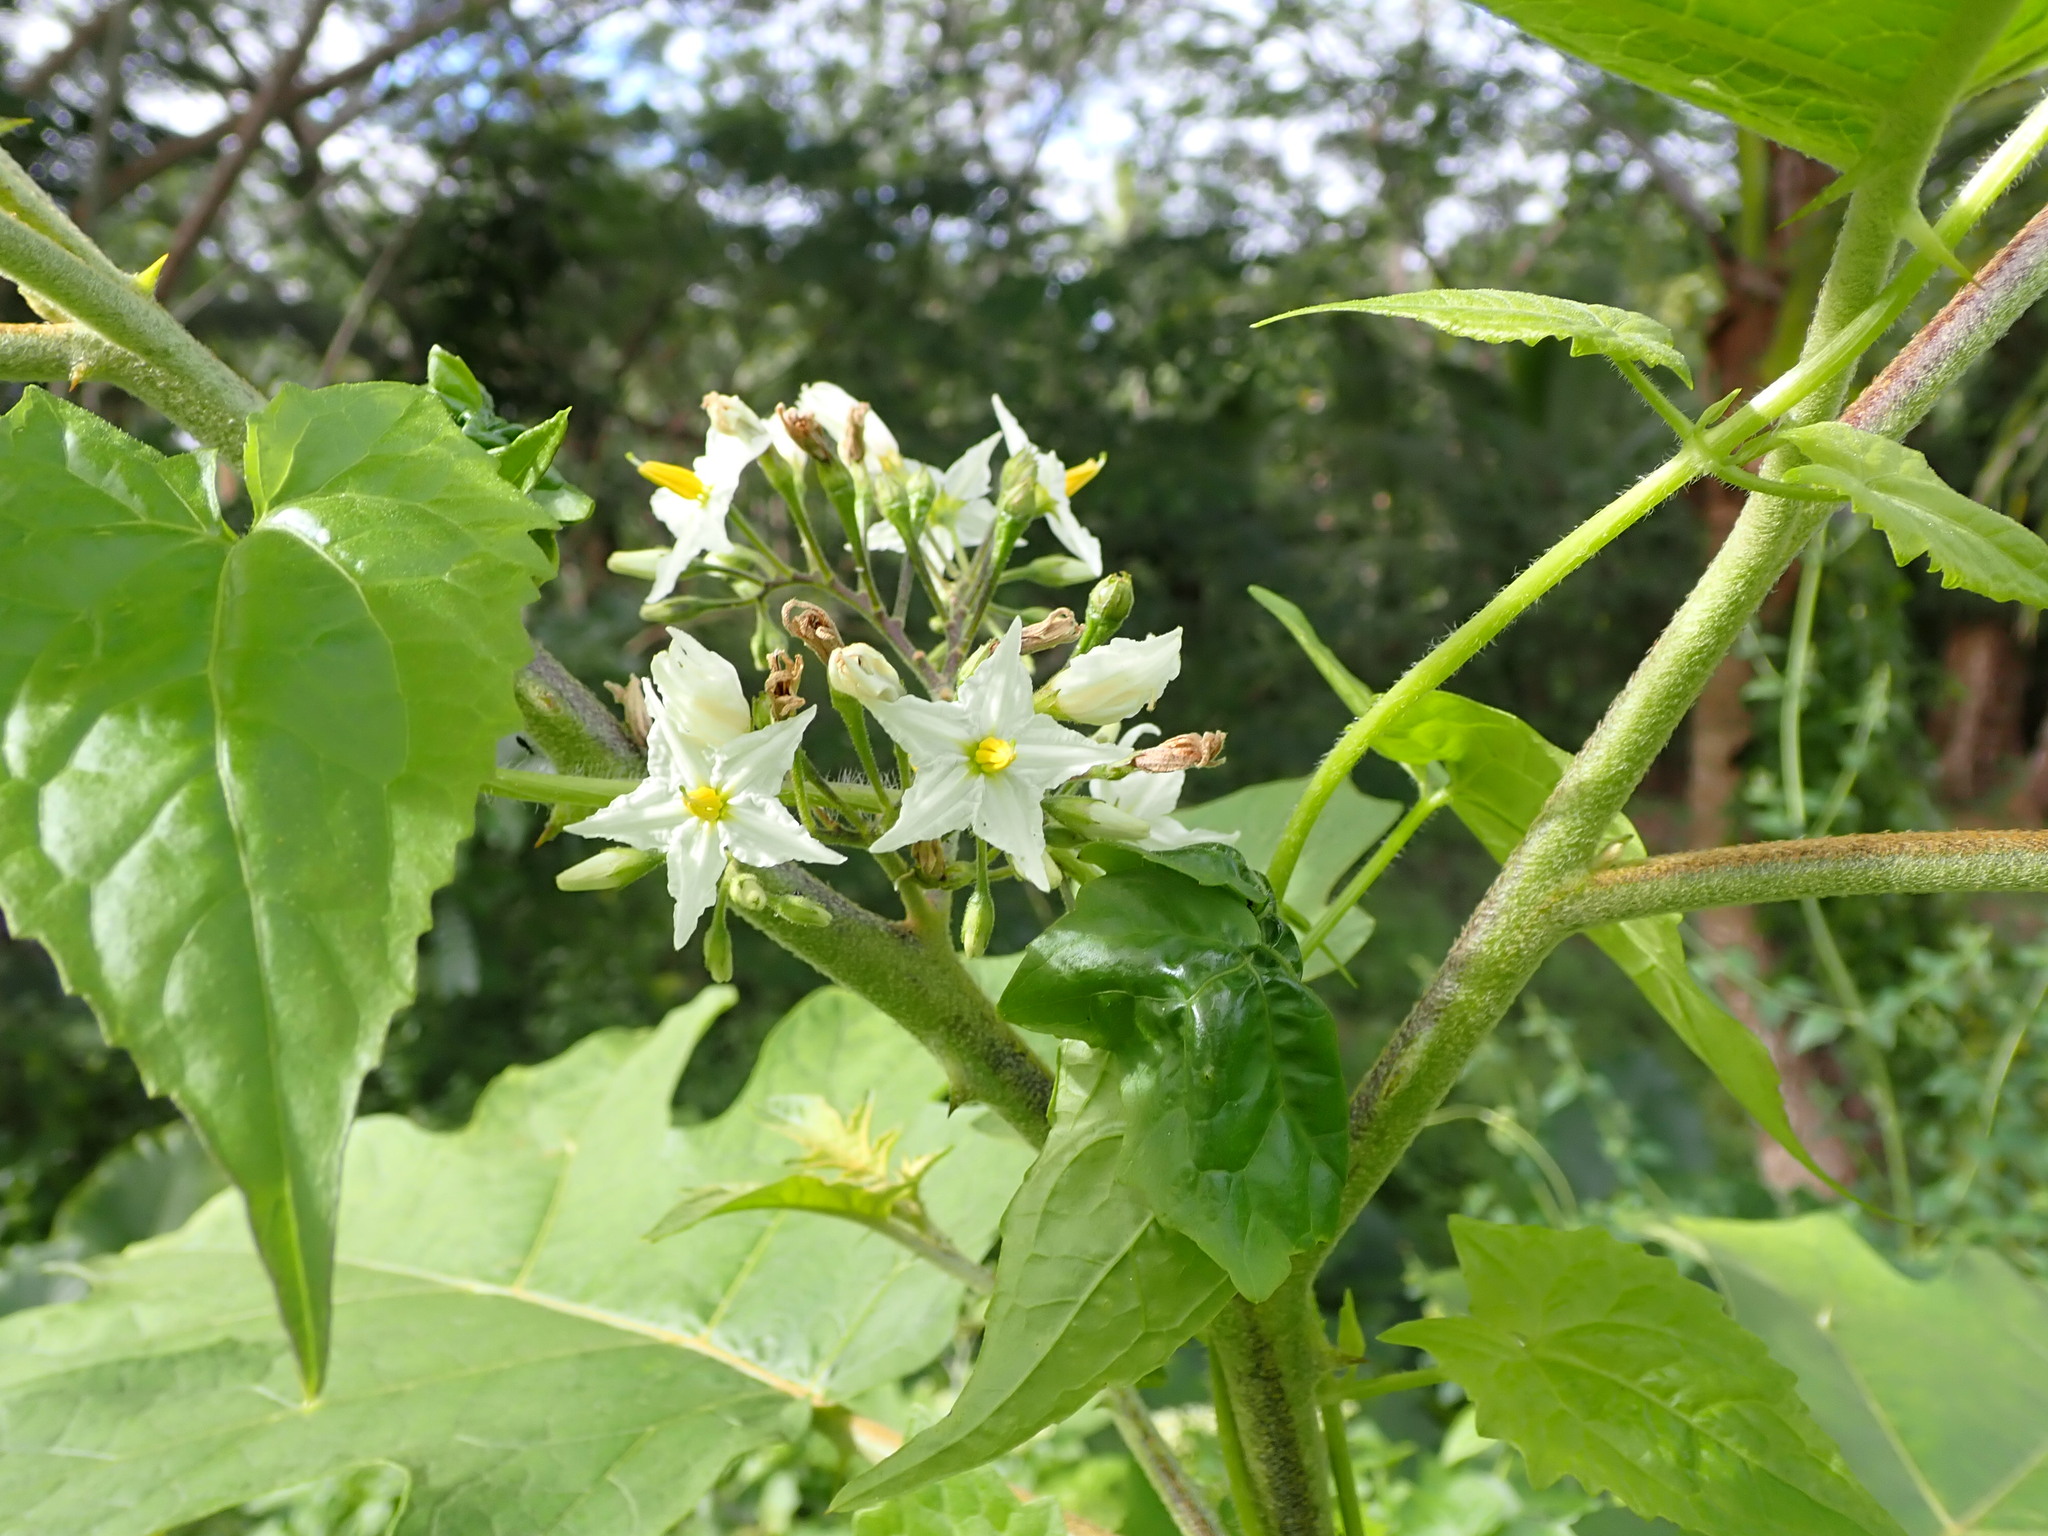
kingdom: Plantae
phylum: Tracheophyta
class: Magnoliopsida
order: Solanales
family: Solanaceae
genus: Solanum
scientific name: Solanum torvum
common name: Turkey berry
